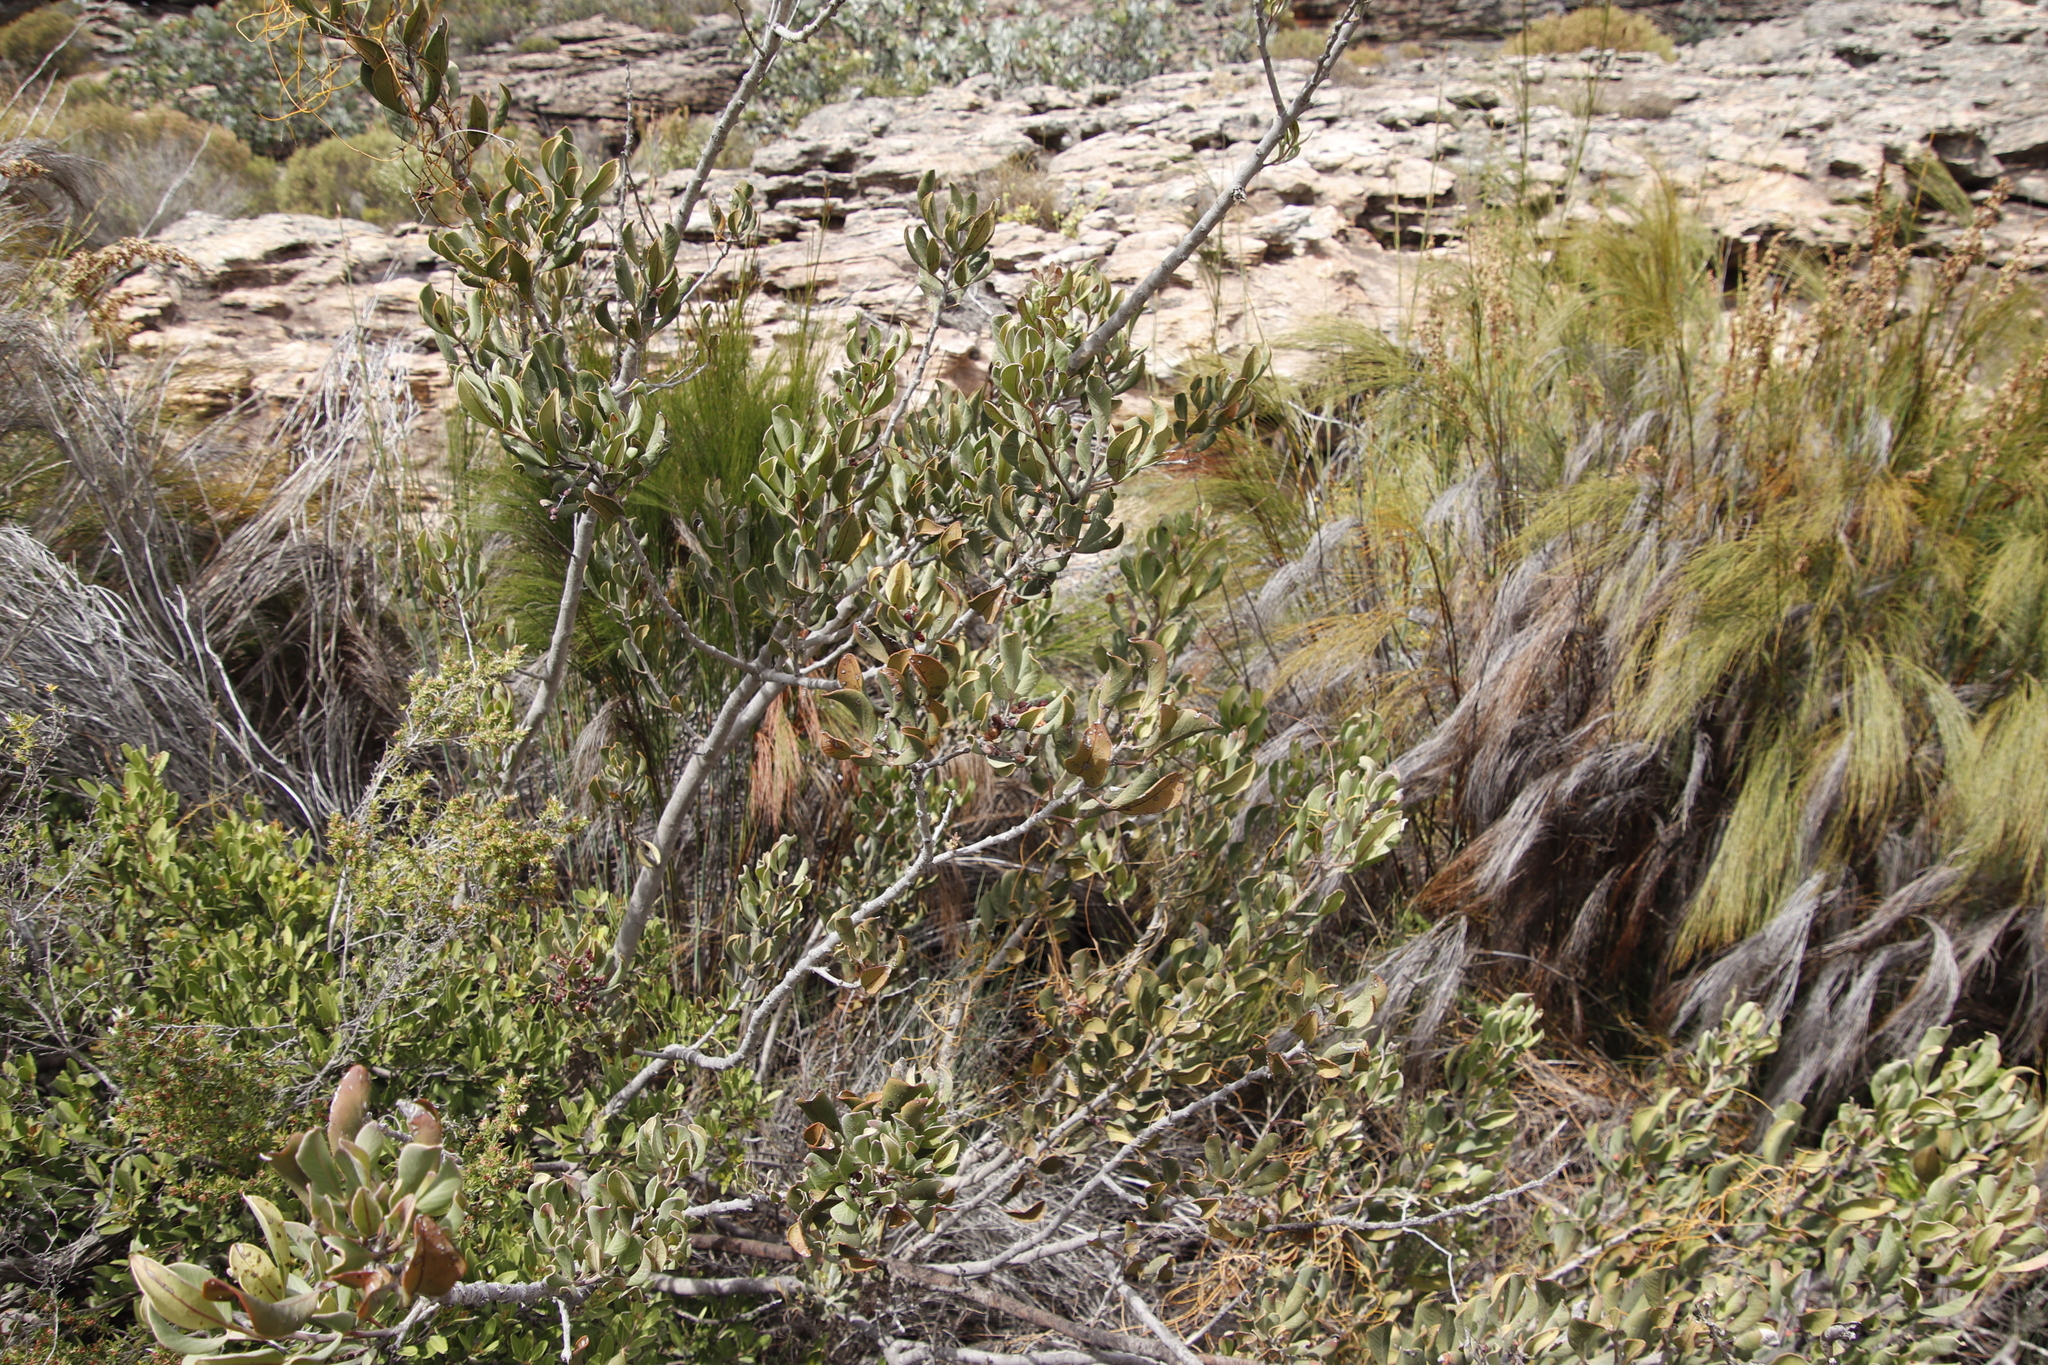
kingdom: Plantae
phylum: Tracheophyta
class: Magnoliopsida
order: Sapindales
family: Anacardiaceae
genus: Searsia
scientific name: Searsia scytophylla
